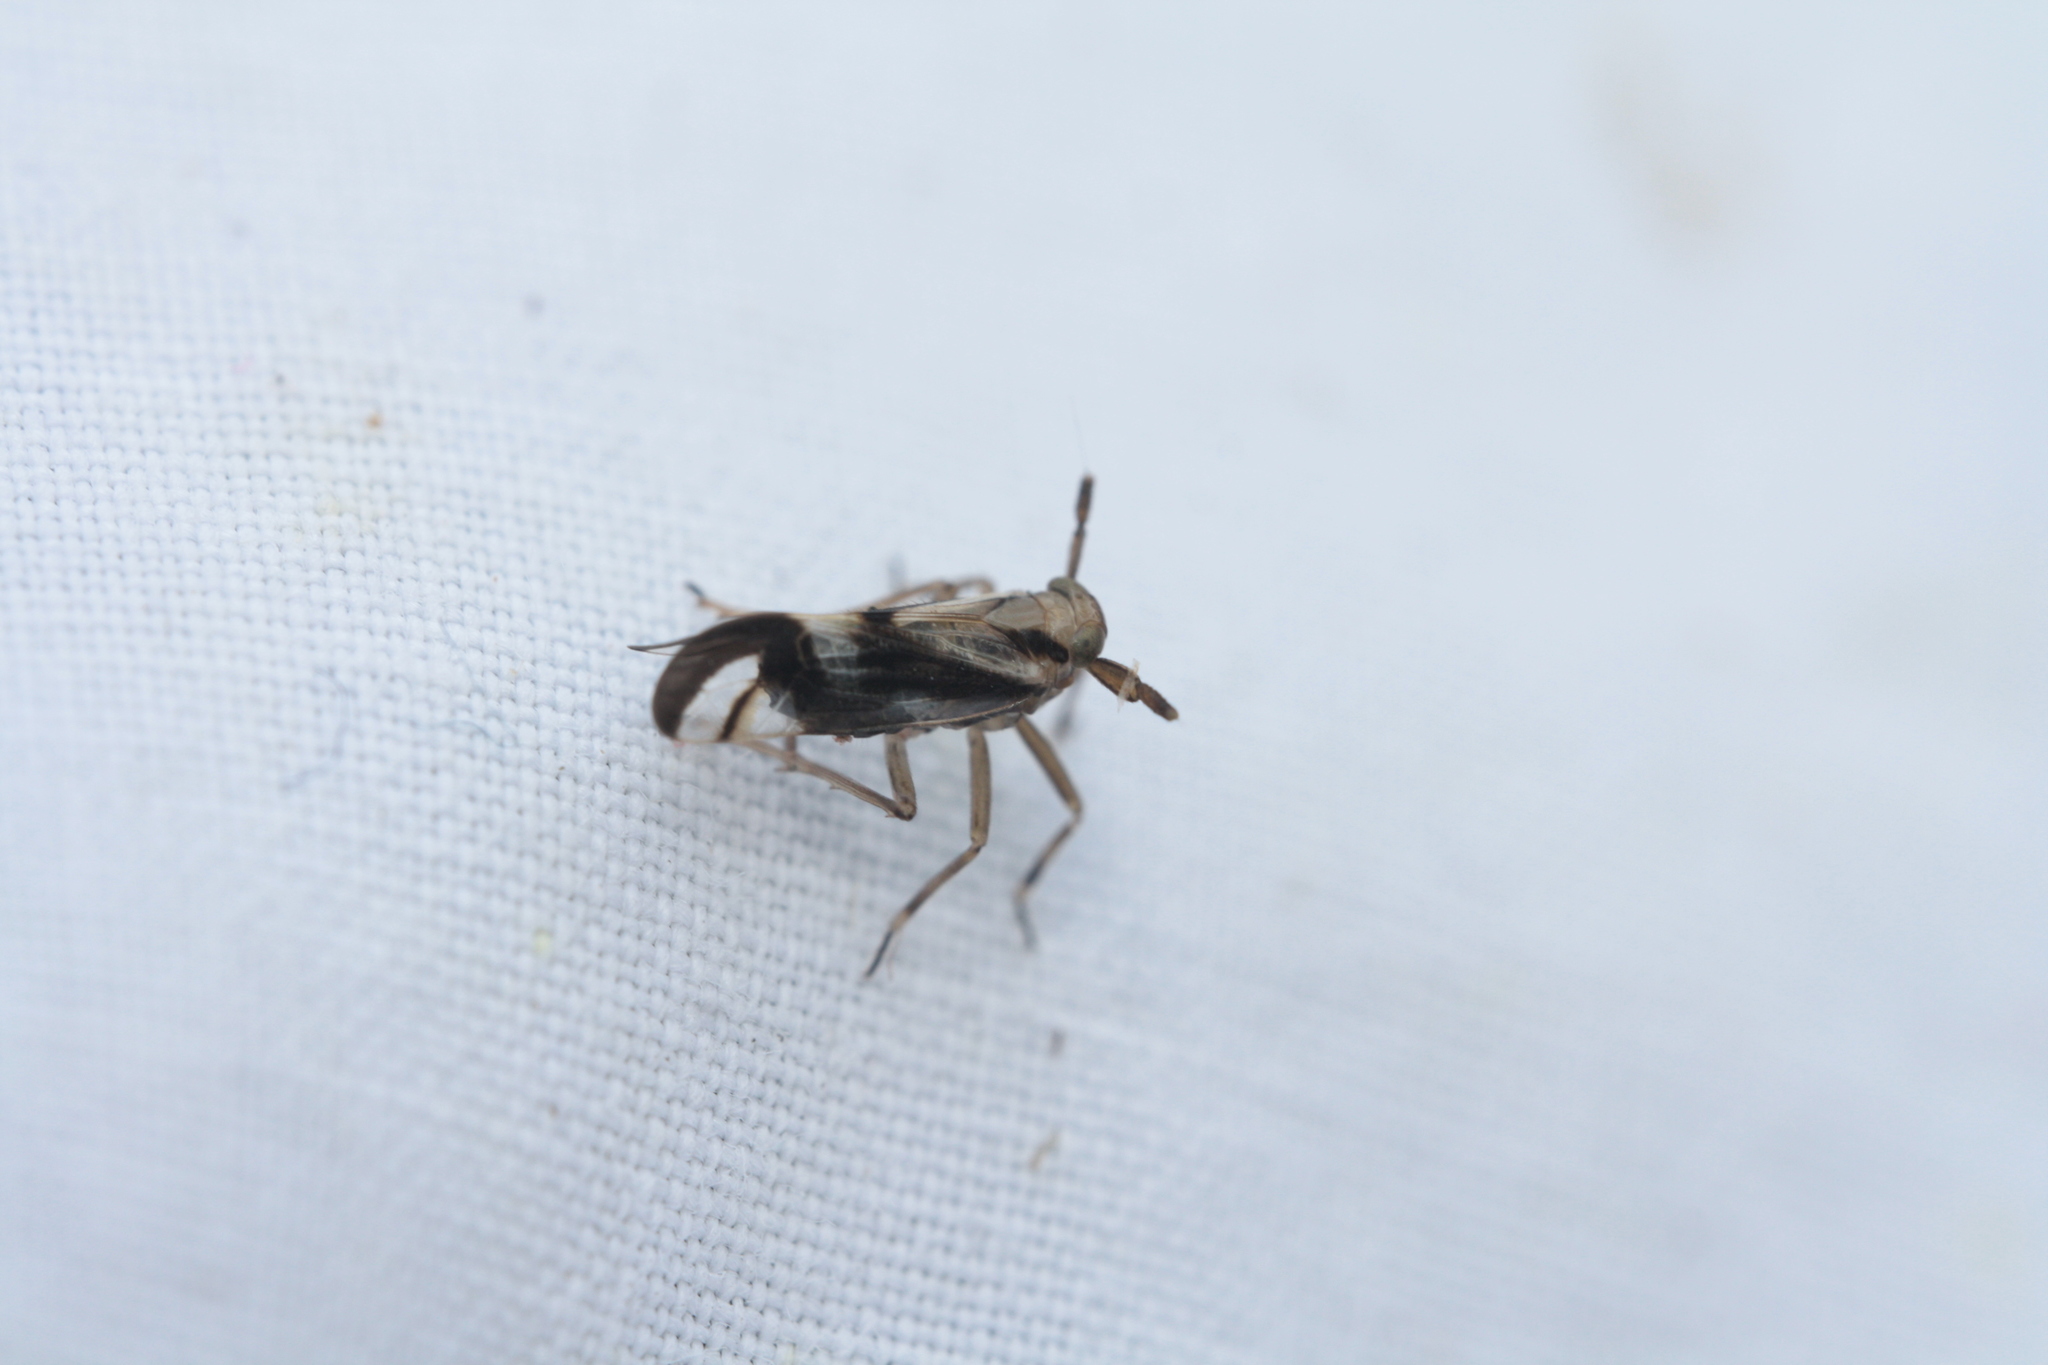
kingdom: Animalia
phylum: Arthropoda
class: Insecta
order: Hemiptera
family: Delphacidae
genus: Delphax
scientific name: Delphax crassicornis
